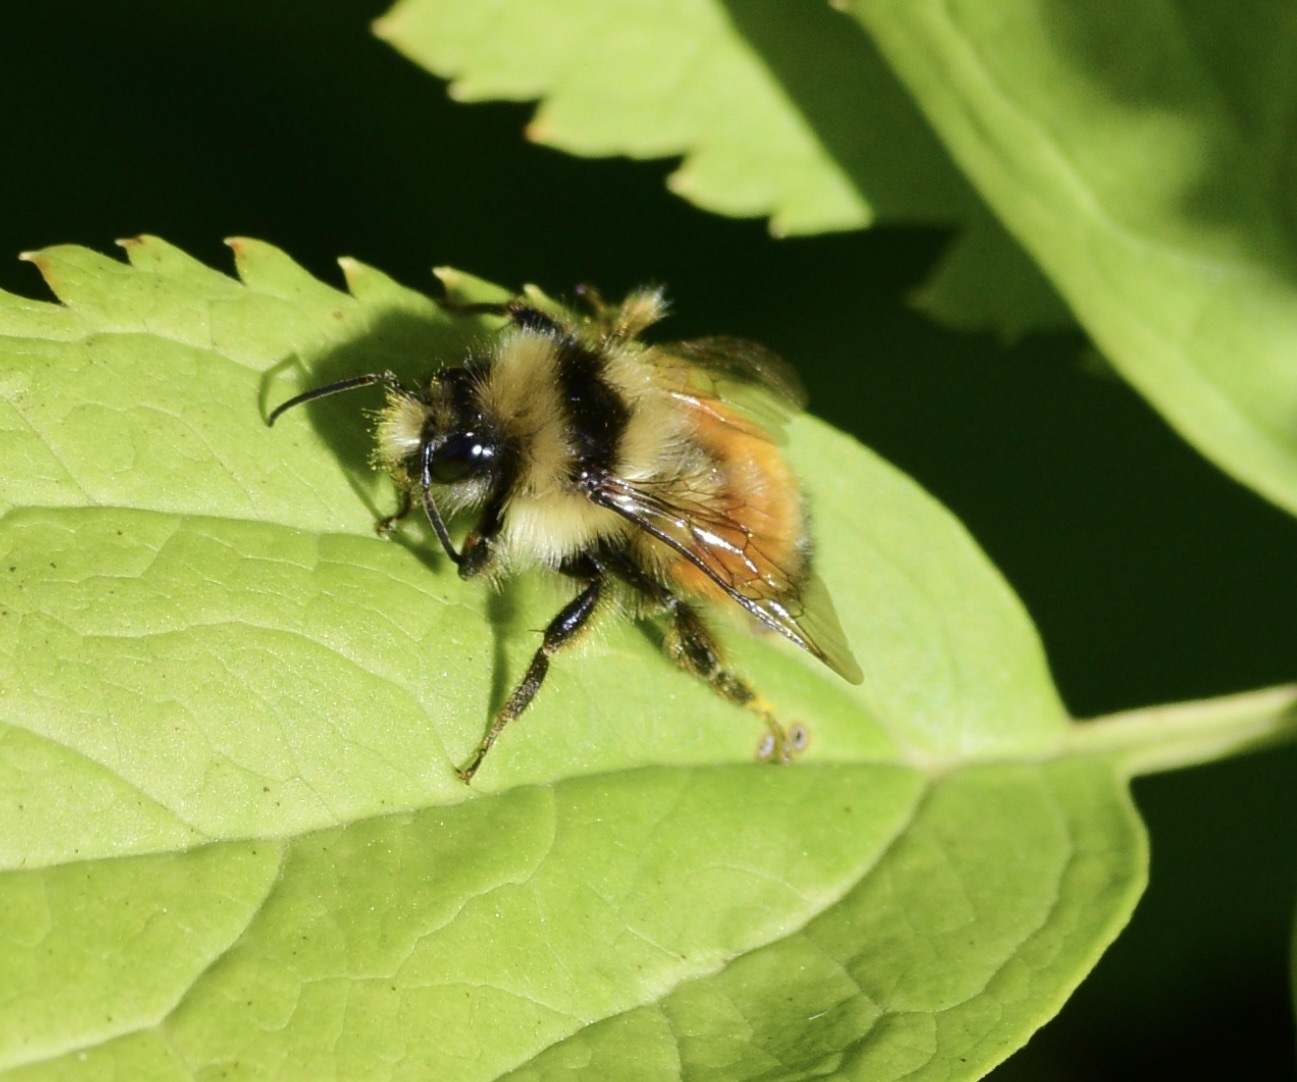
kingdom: Animalia
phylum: Arthropoda
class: Insecta
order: Hymenoptera
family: Apidae
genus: Bombus
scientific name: Bombus ternarius
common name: Tri-colored bumble bee
